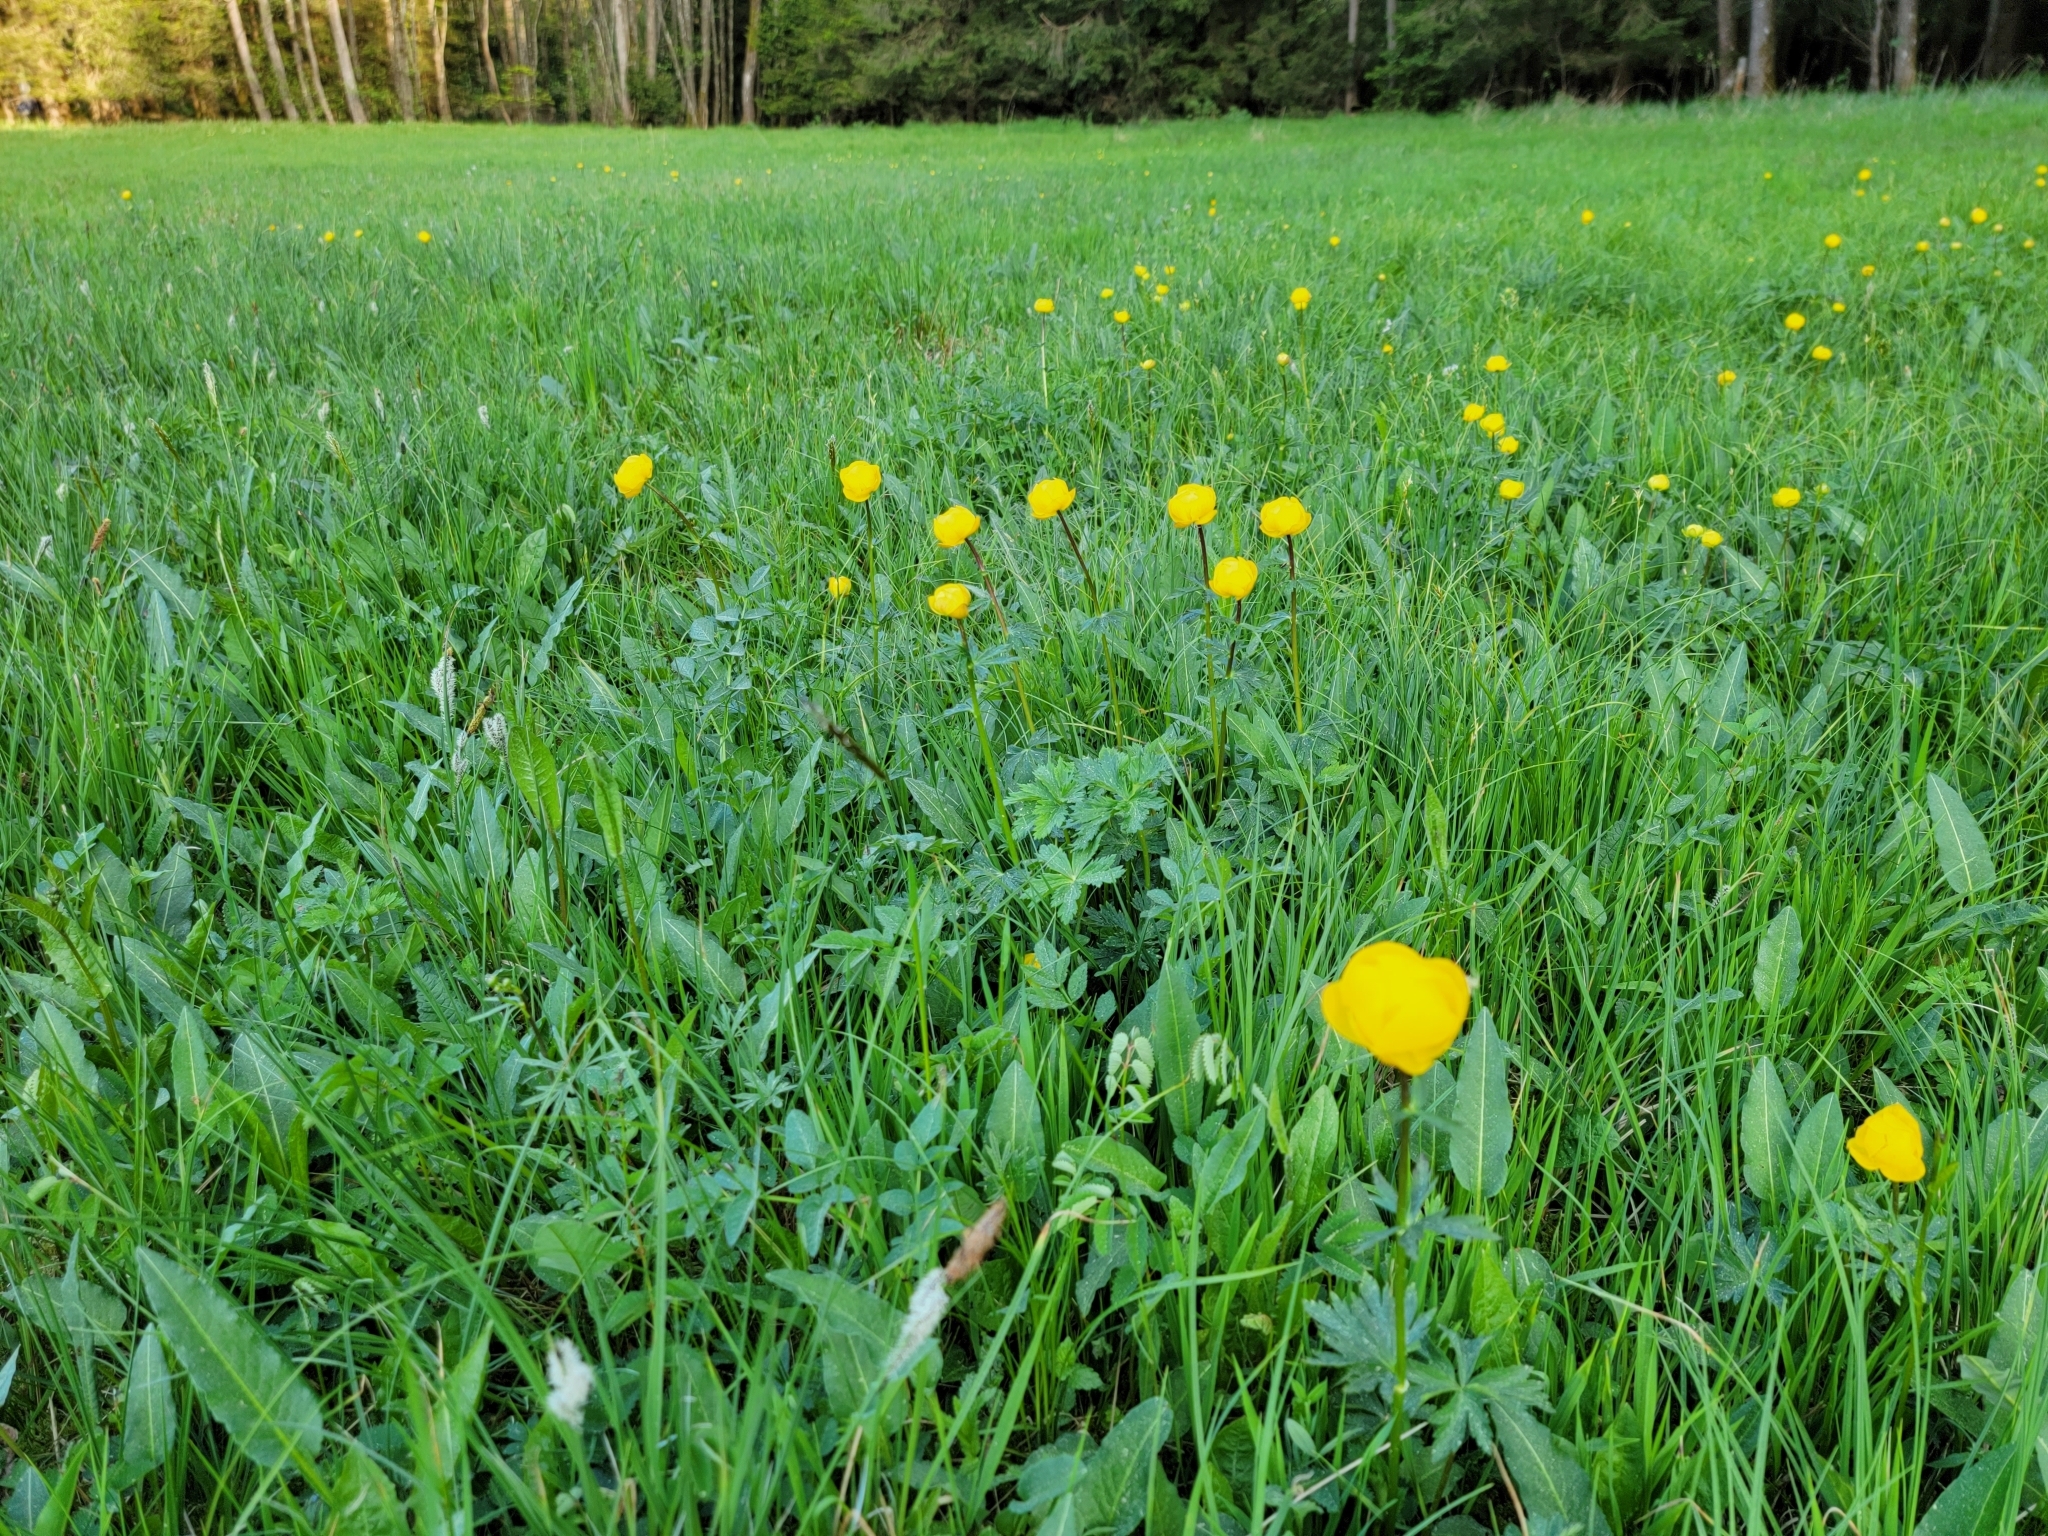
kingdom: Plantae
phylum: Tracheophyta
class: Magnoliopsida
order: Ranunculales
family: Ranunculaceae
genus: Trollius
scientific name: Trollius europaeus
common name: European globeflower
